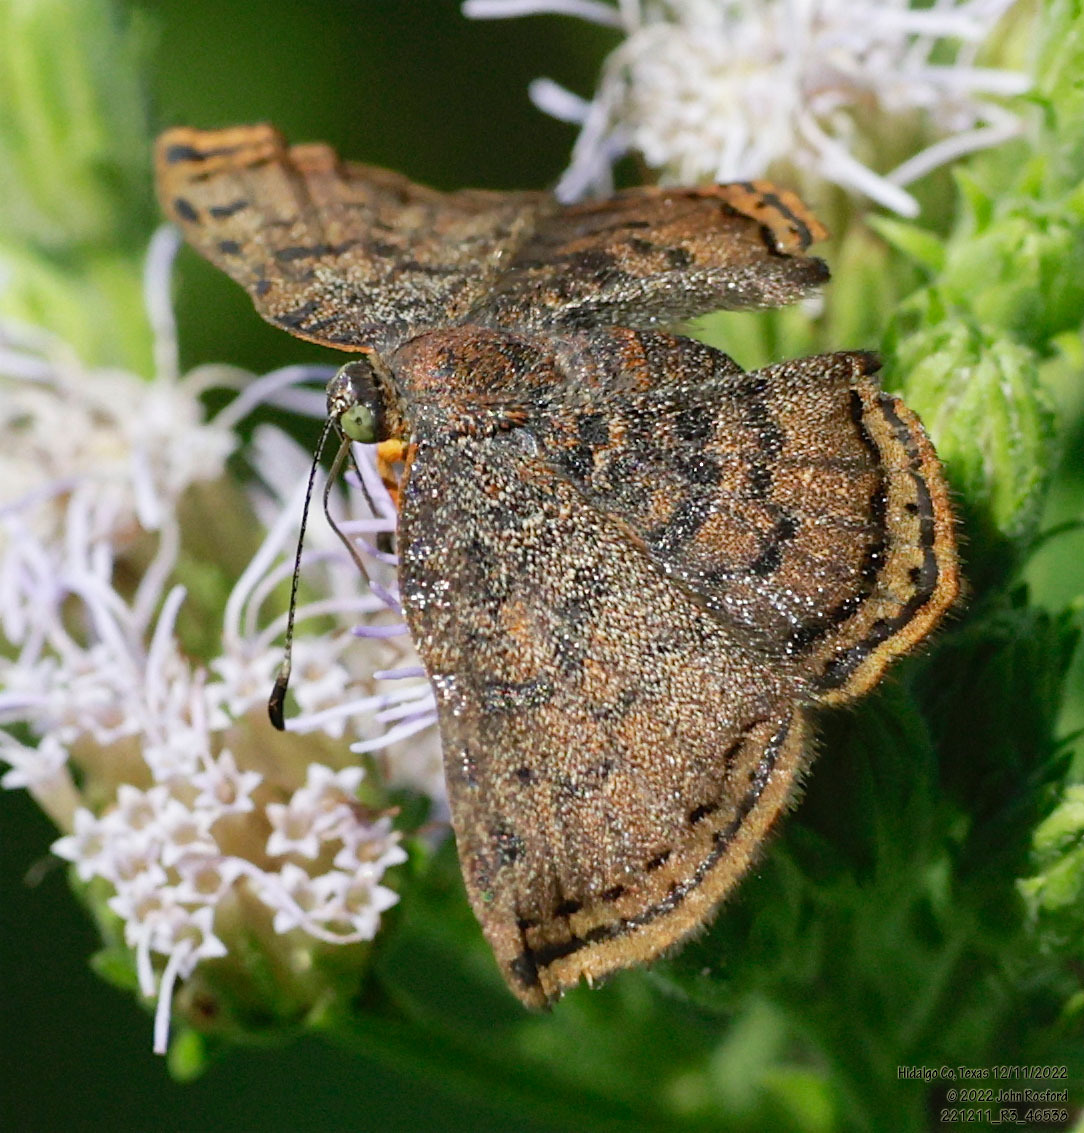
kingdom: Animalia
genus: Caria
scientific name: Caria ino
